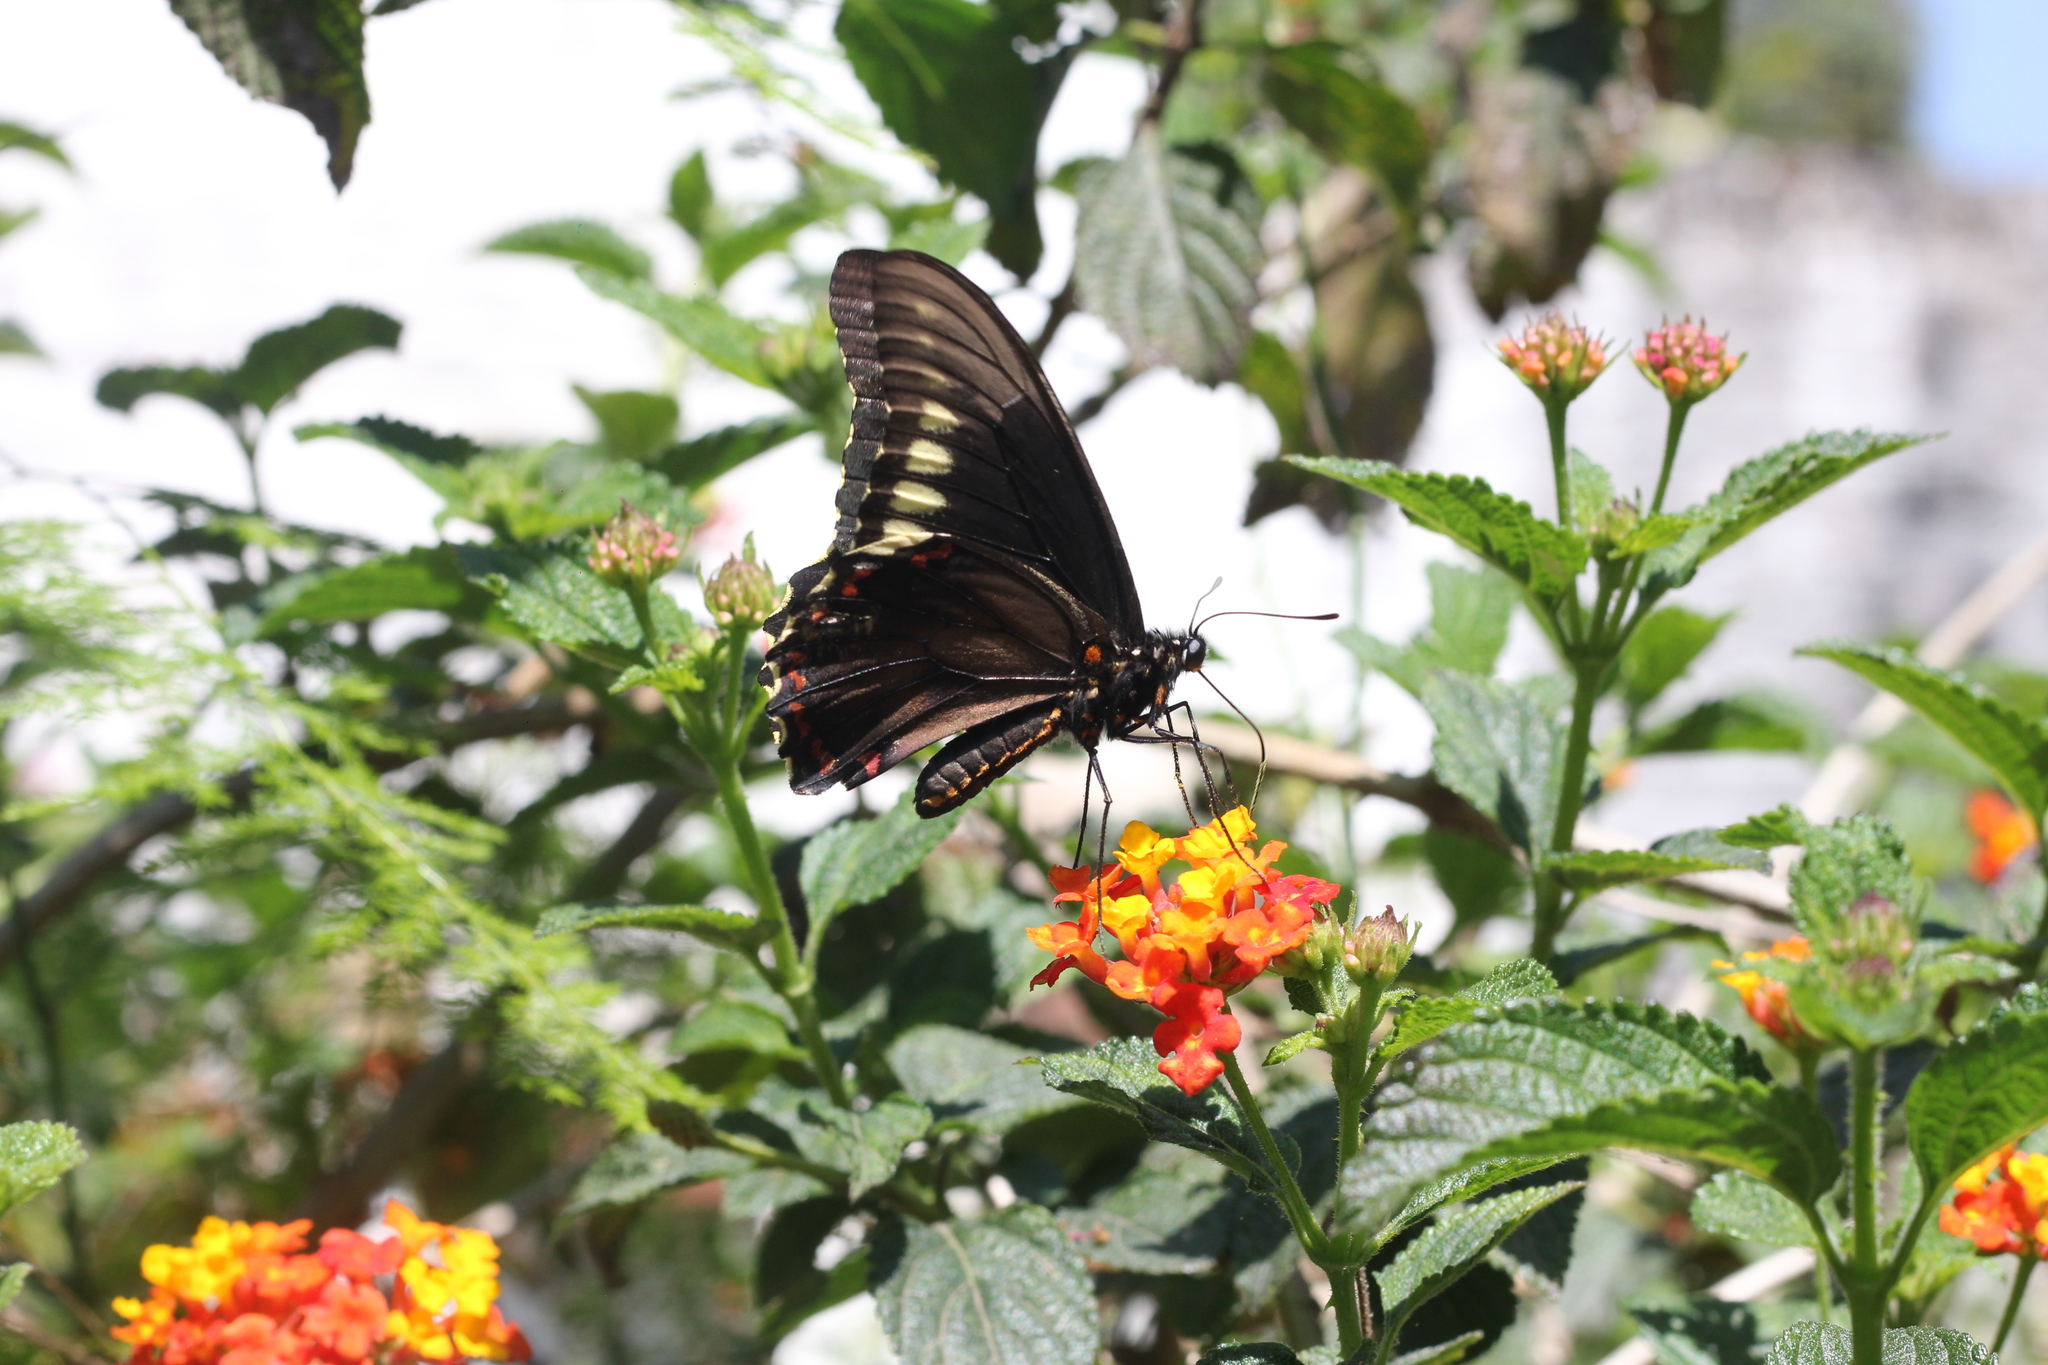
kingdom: Animalia
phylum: Arthropoda
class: Insecta
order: Lepidoptera
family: Papilionidae
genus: Battus
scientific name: Battus polydamas
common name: Polydamas swallowtail
